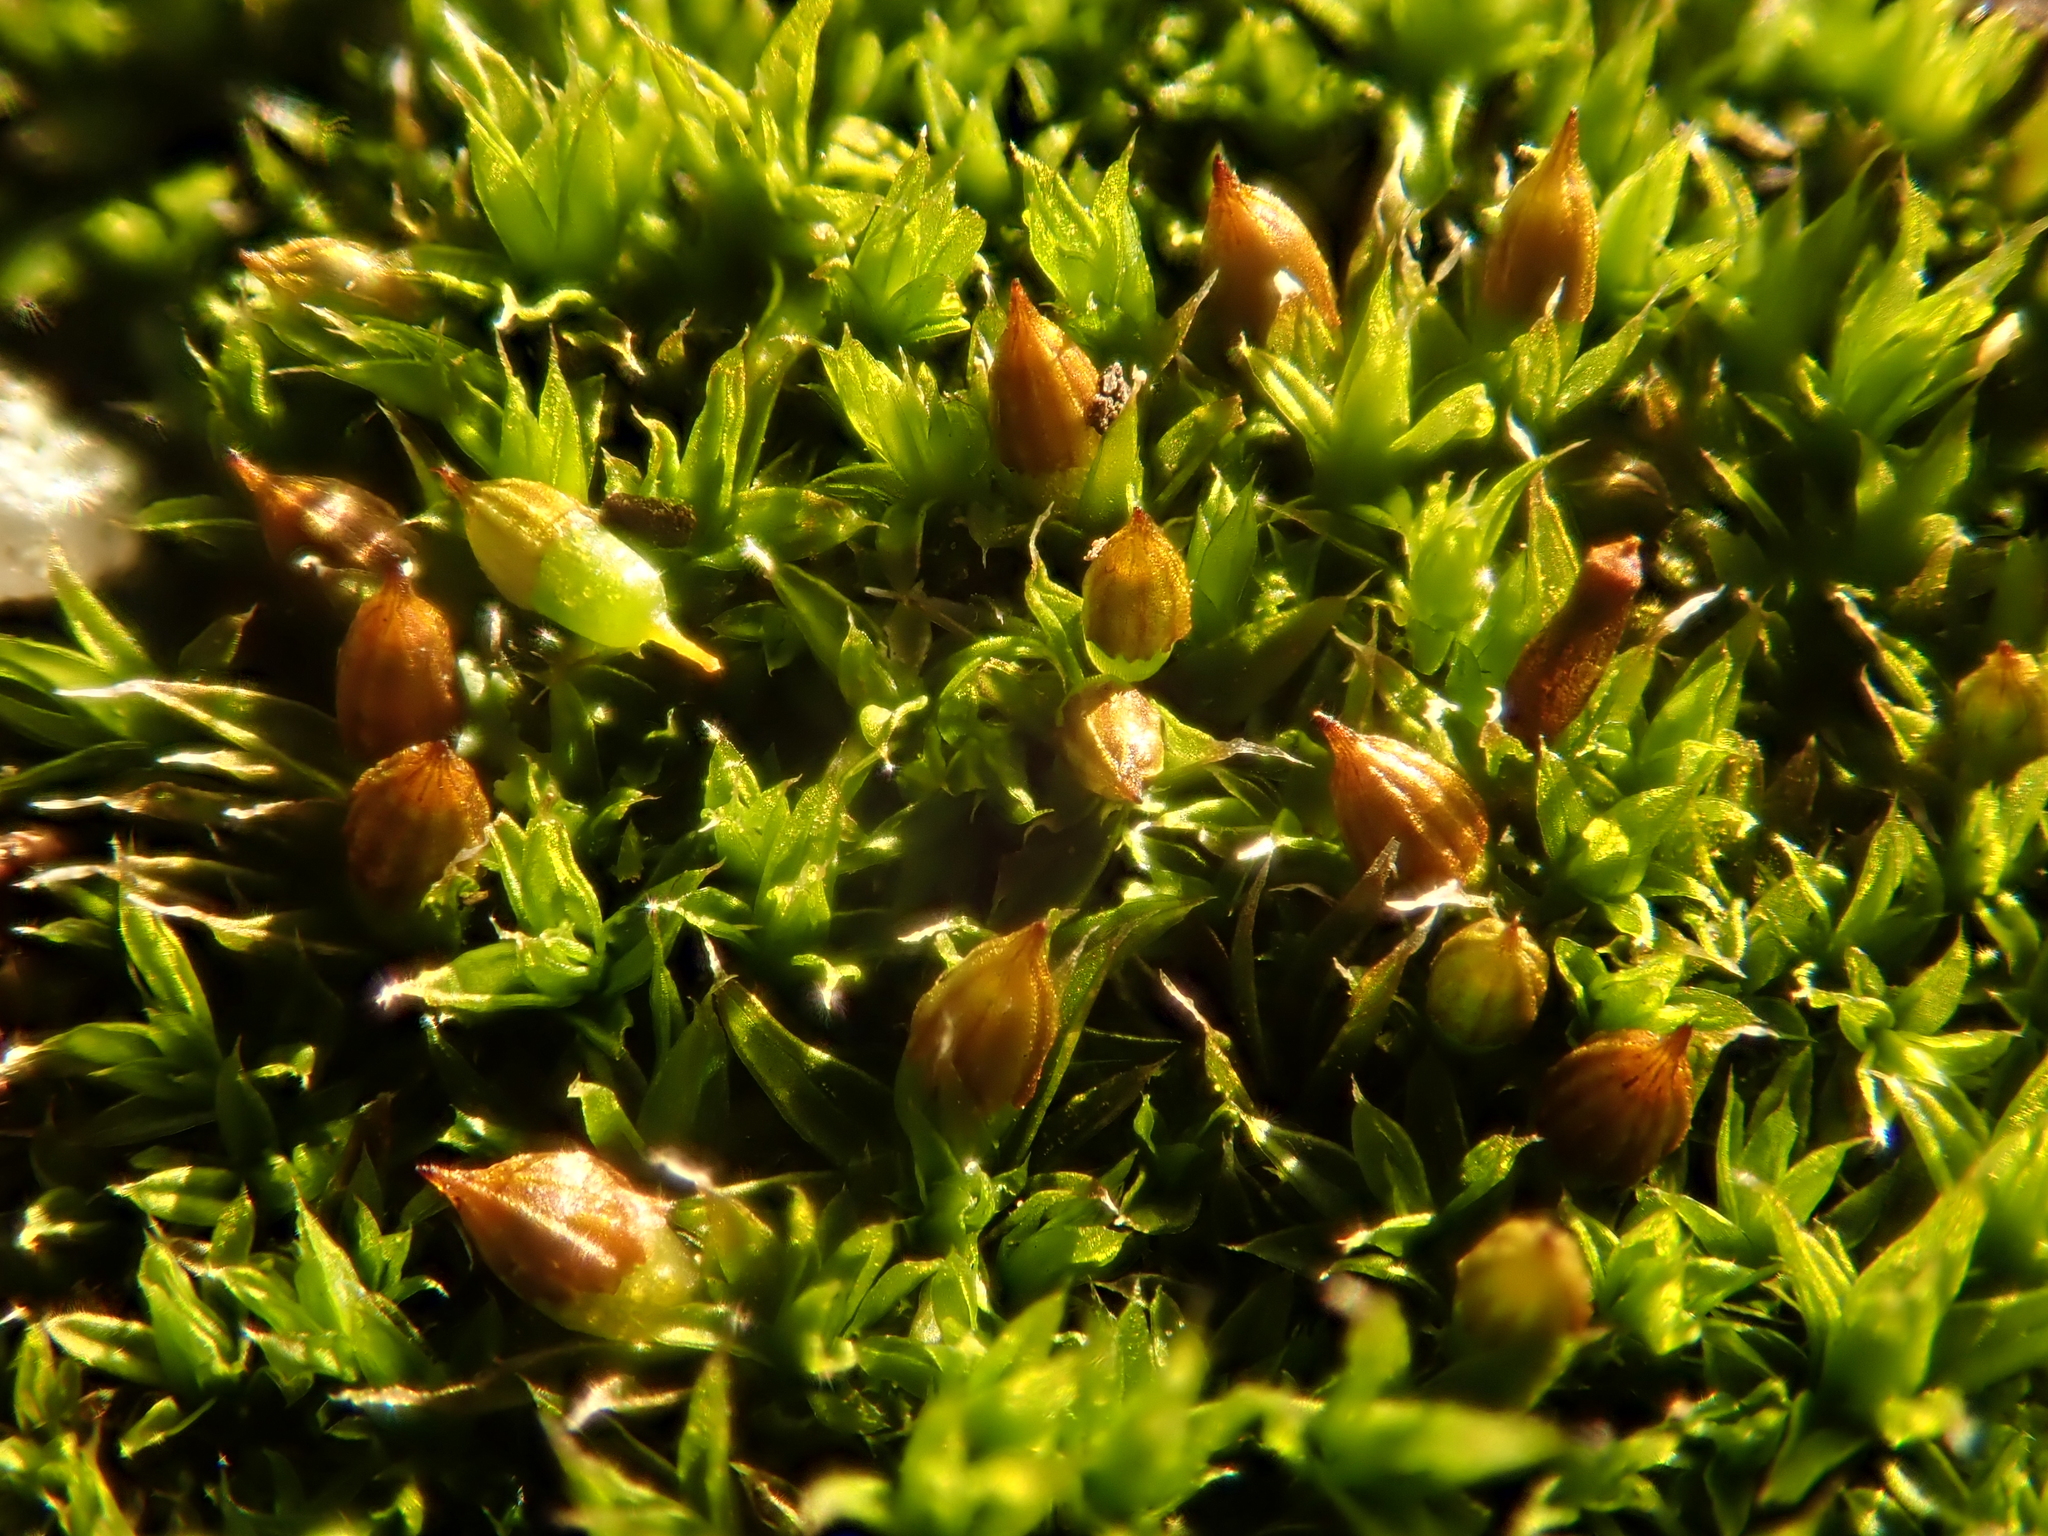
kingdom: Plantae
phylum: Bryophyta
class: Bryopsida
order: Orthotrichales
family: Orthotrichaceae
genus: Orthotrichum
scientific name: Orthotrichum diaphanum
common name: White-tipped bristle-moss
